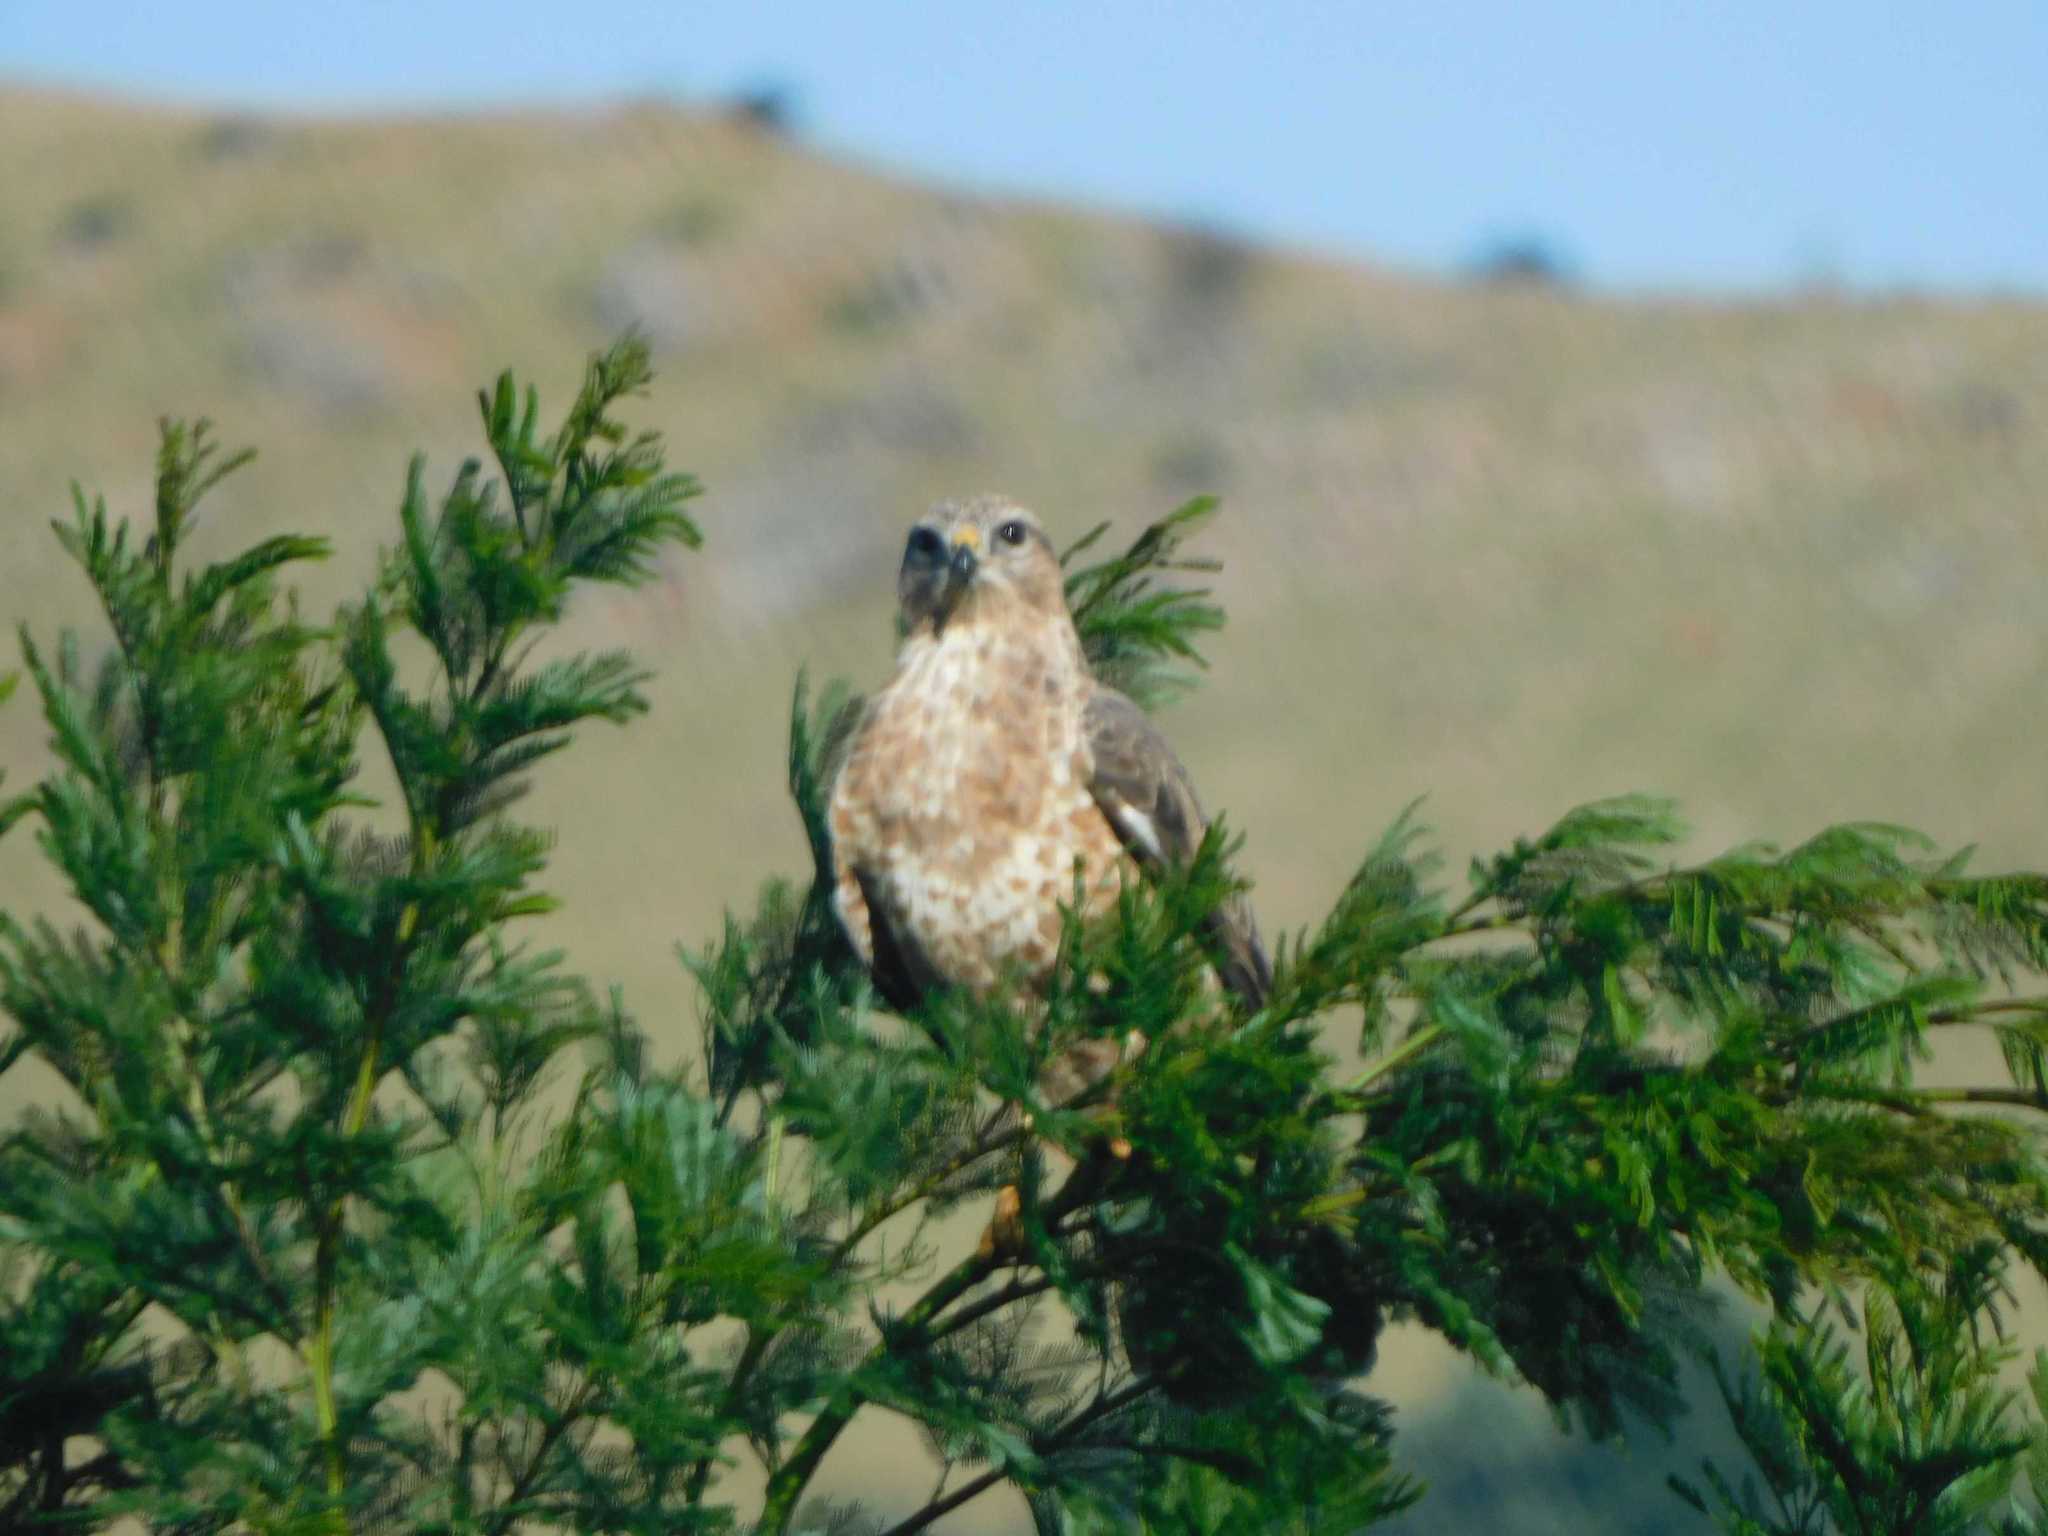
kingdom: Animalia
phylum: Chordata
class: Aves
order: Accipitriformes
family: Accipitridae
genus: Buteo
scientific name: Buteo buteo
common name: Common buzzard
